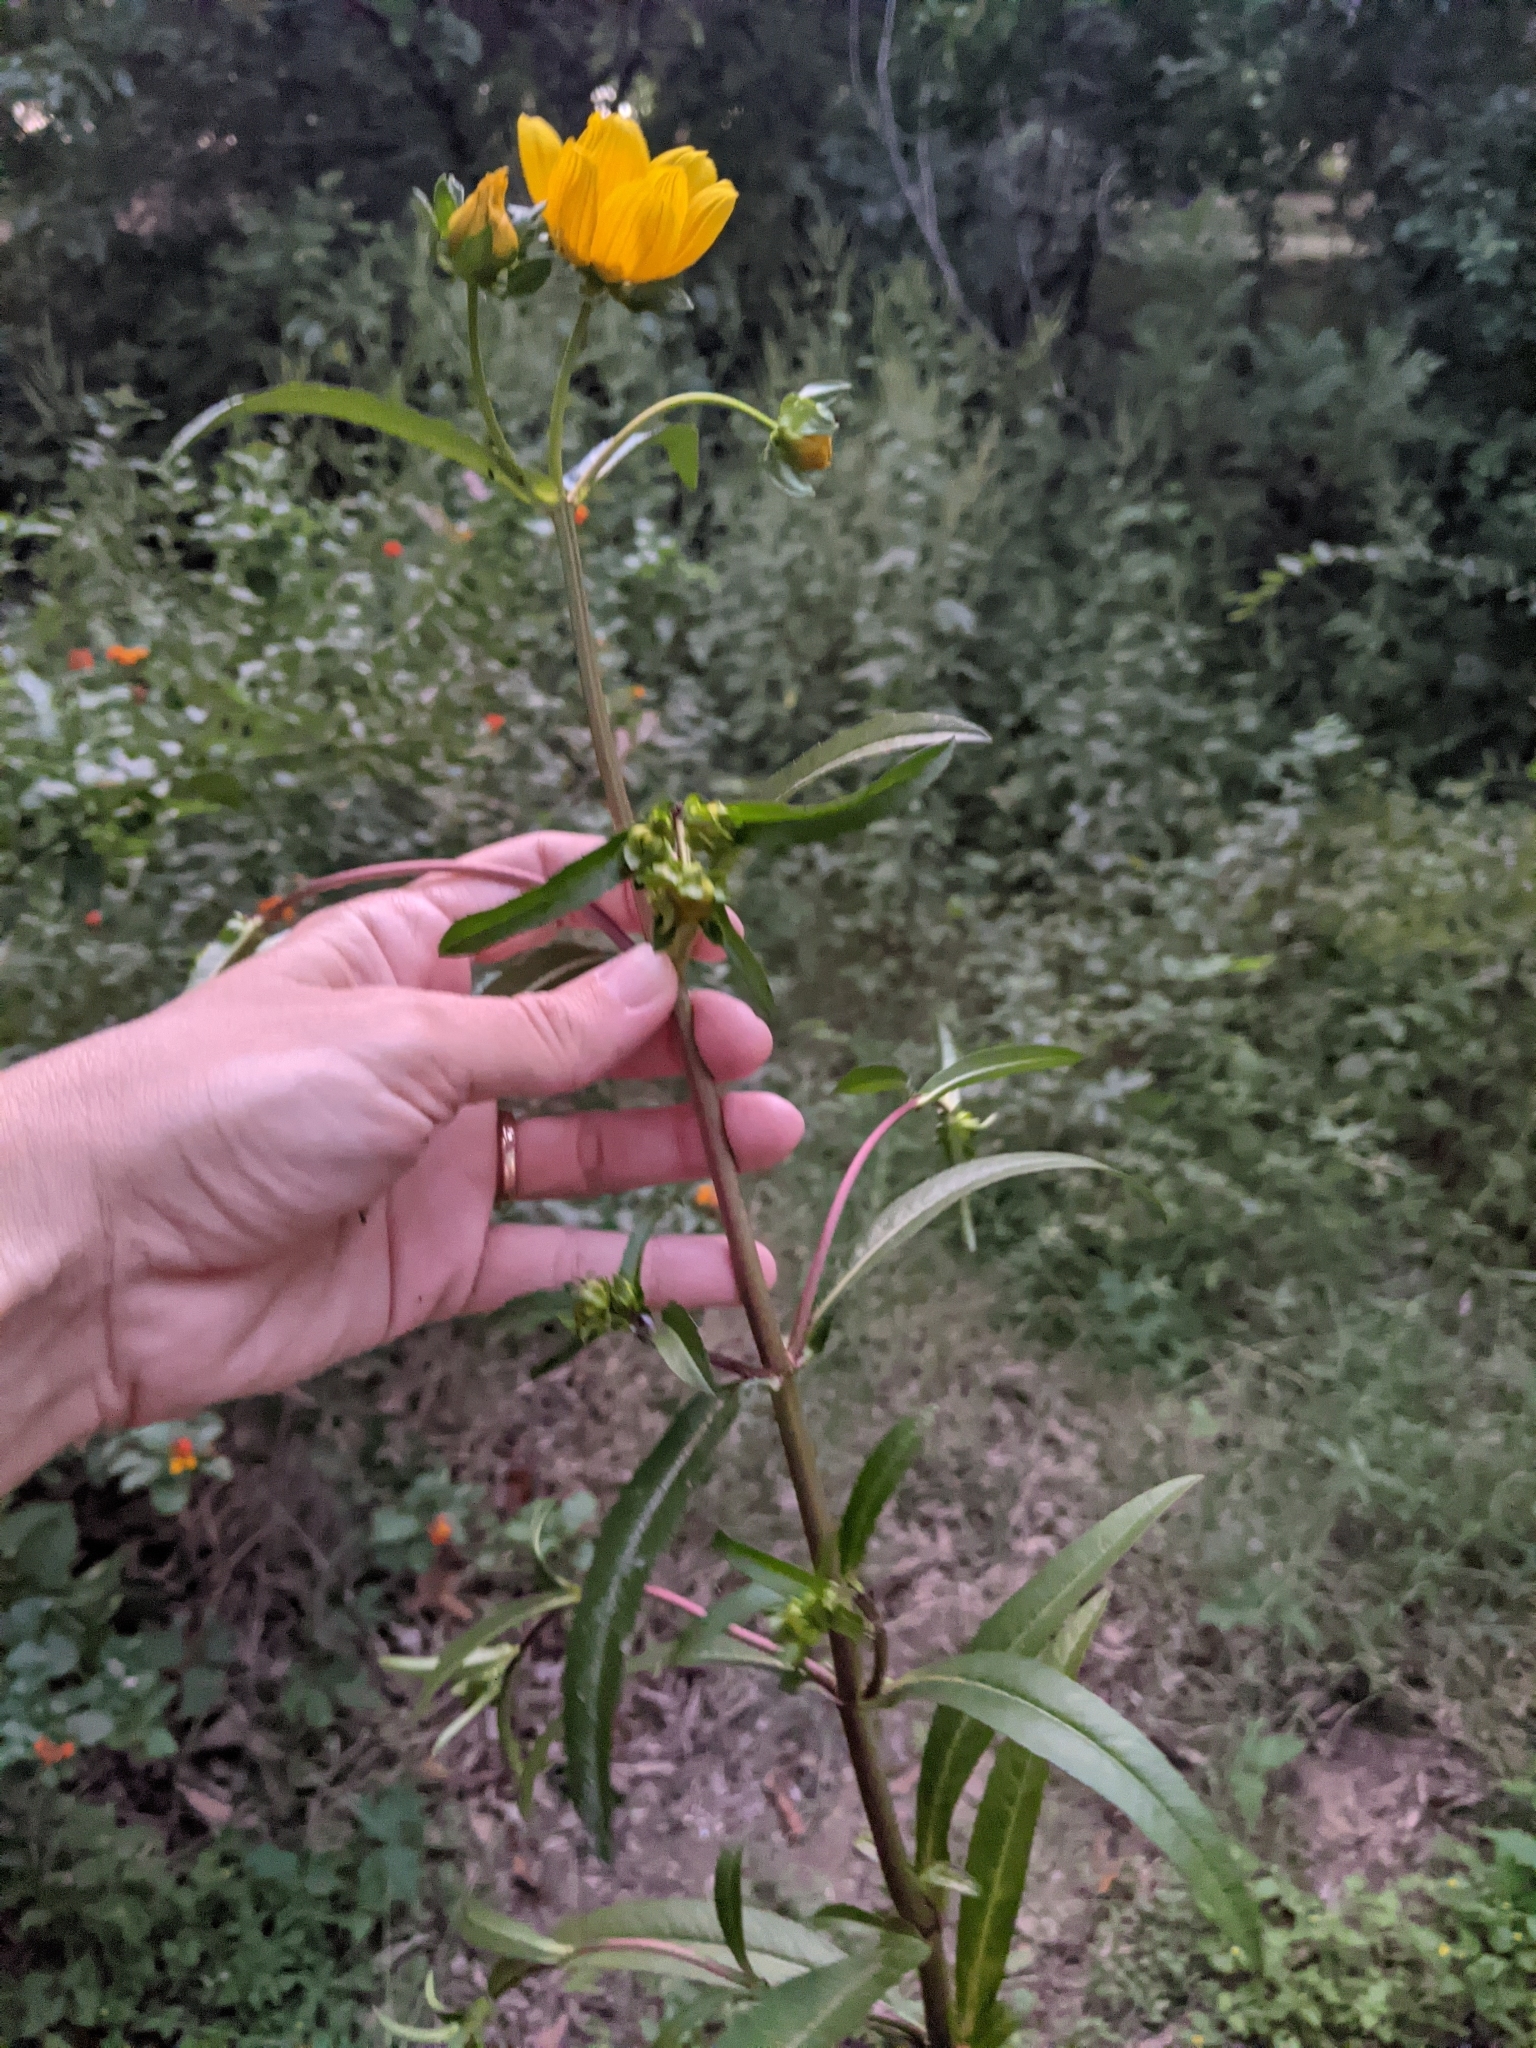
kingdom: Plantae
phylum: Tracheophyta
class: Magnoliopsida
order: Asterales
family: Asteraceae
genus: Bidens
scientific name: Bidens laevis
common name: Larger bur-marigold
